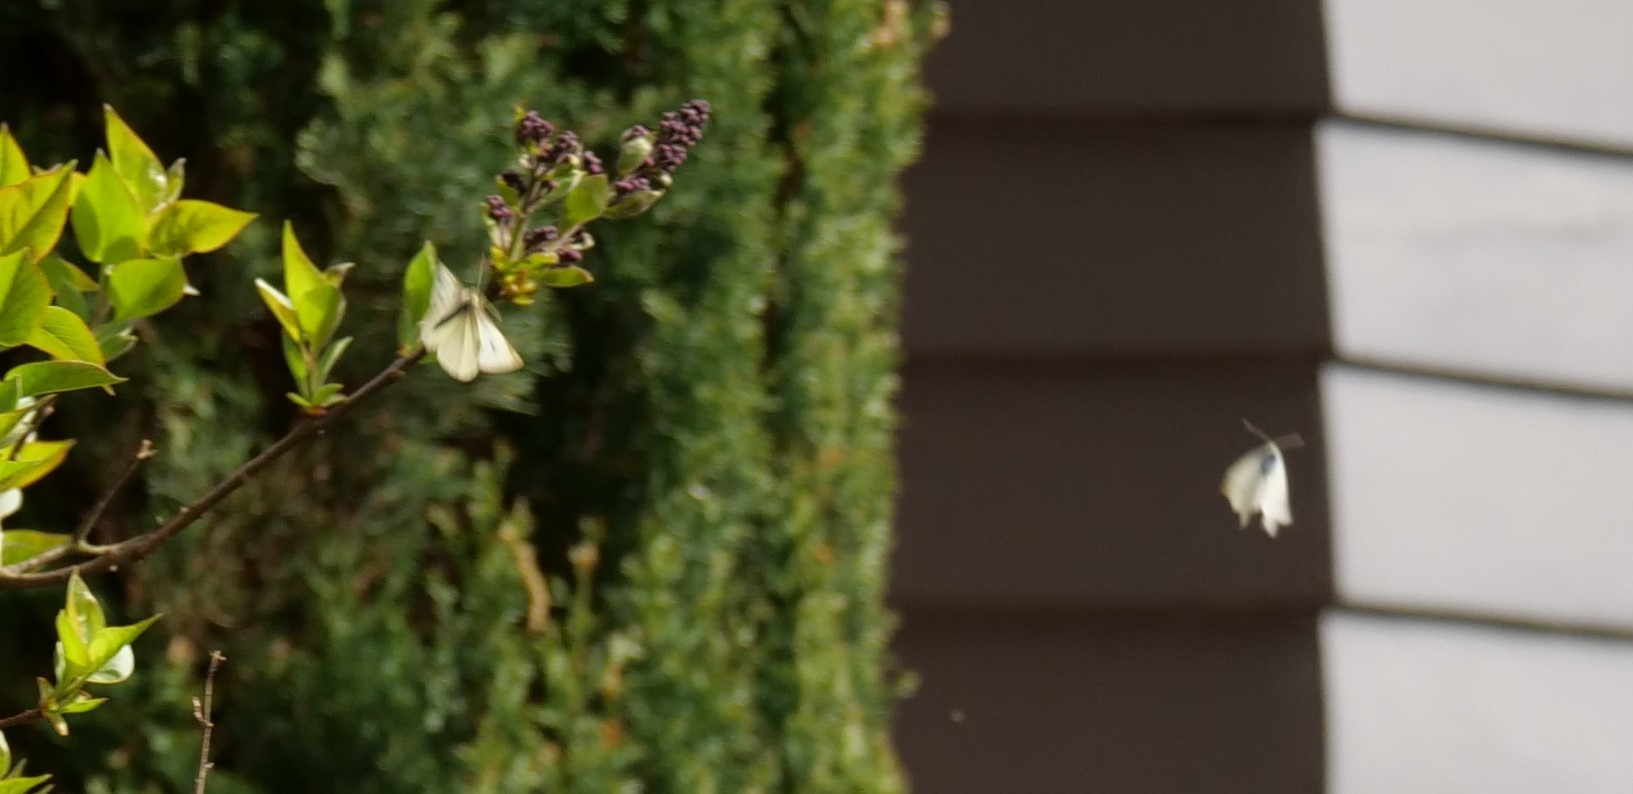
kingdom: Animalia
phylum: Arthropoda
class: Insecta
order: Lepidoptera
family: Pieridae
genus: Pieris
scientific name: Pieris rapae
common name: Small white
